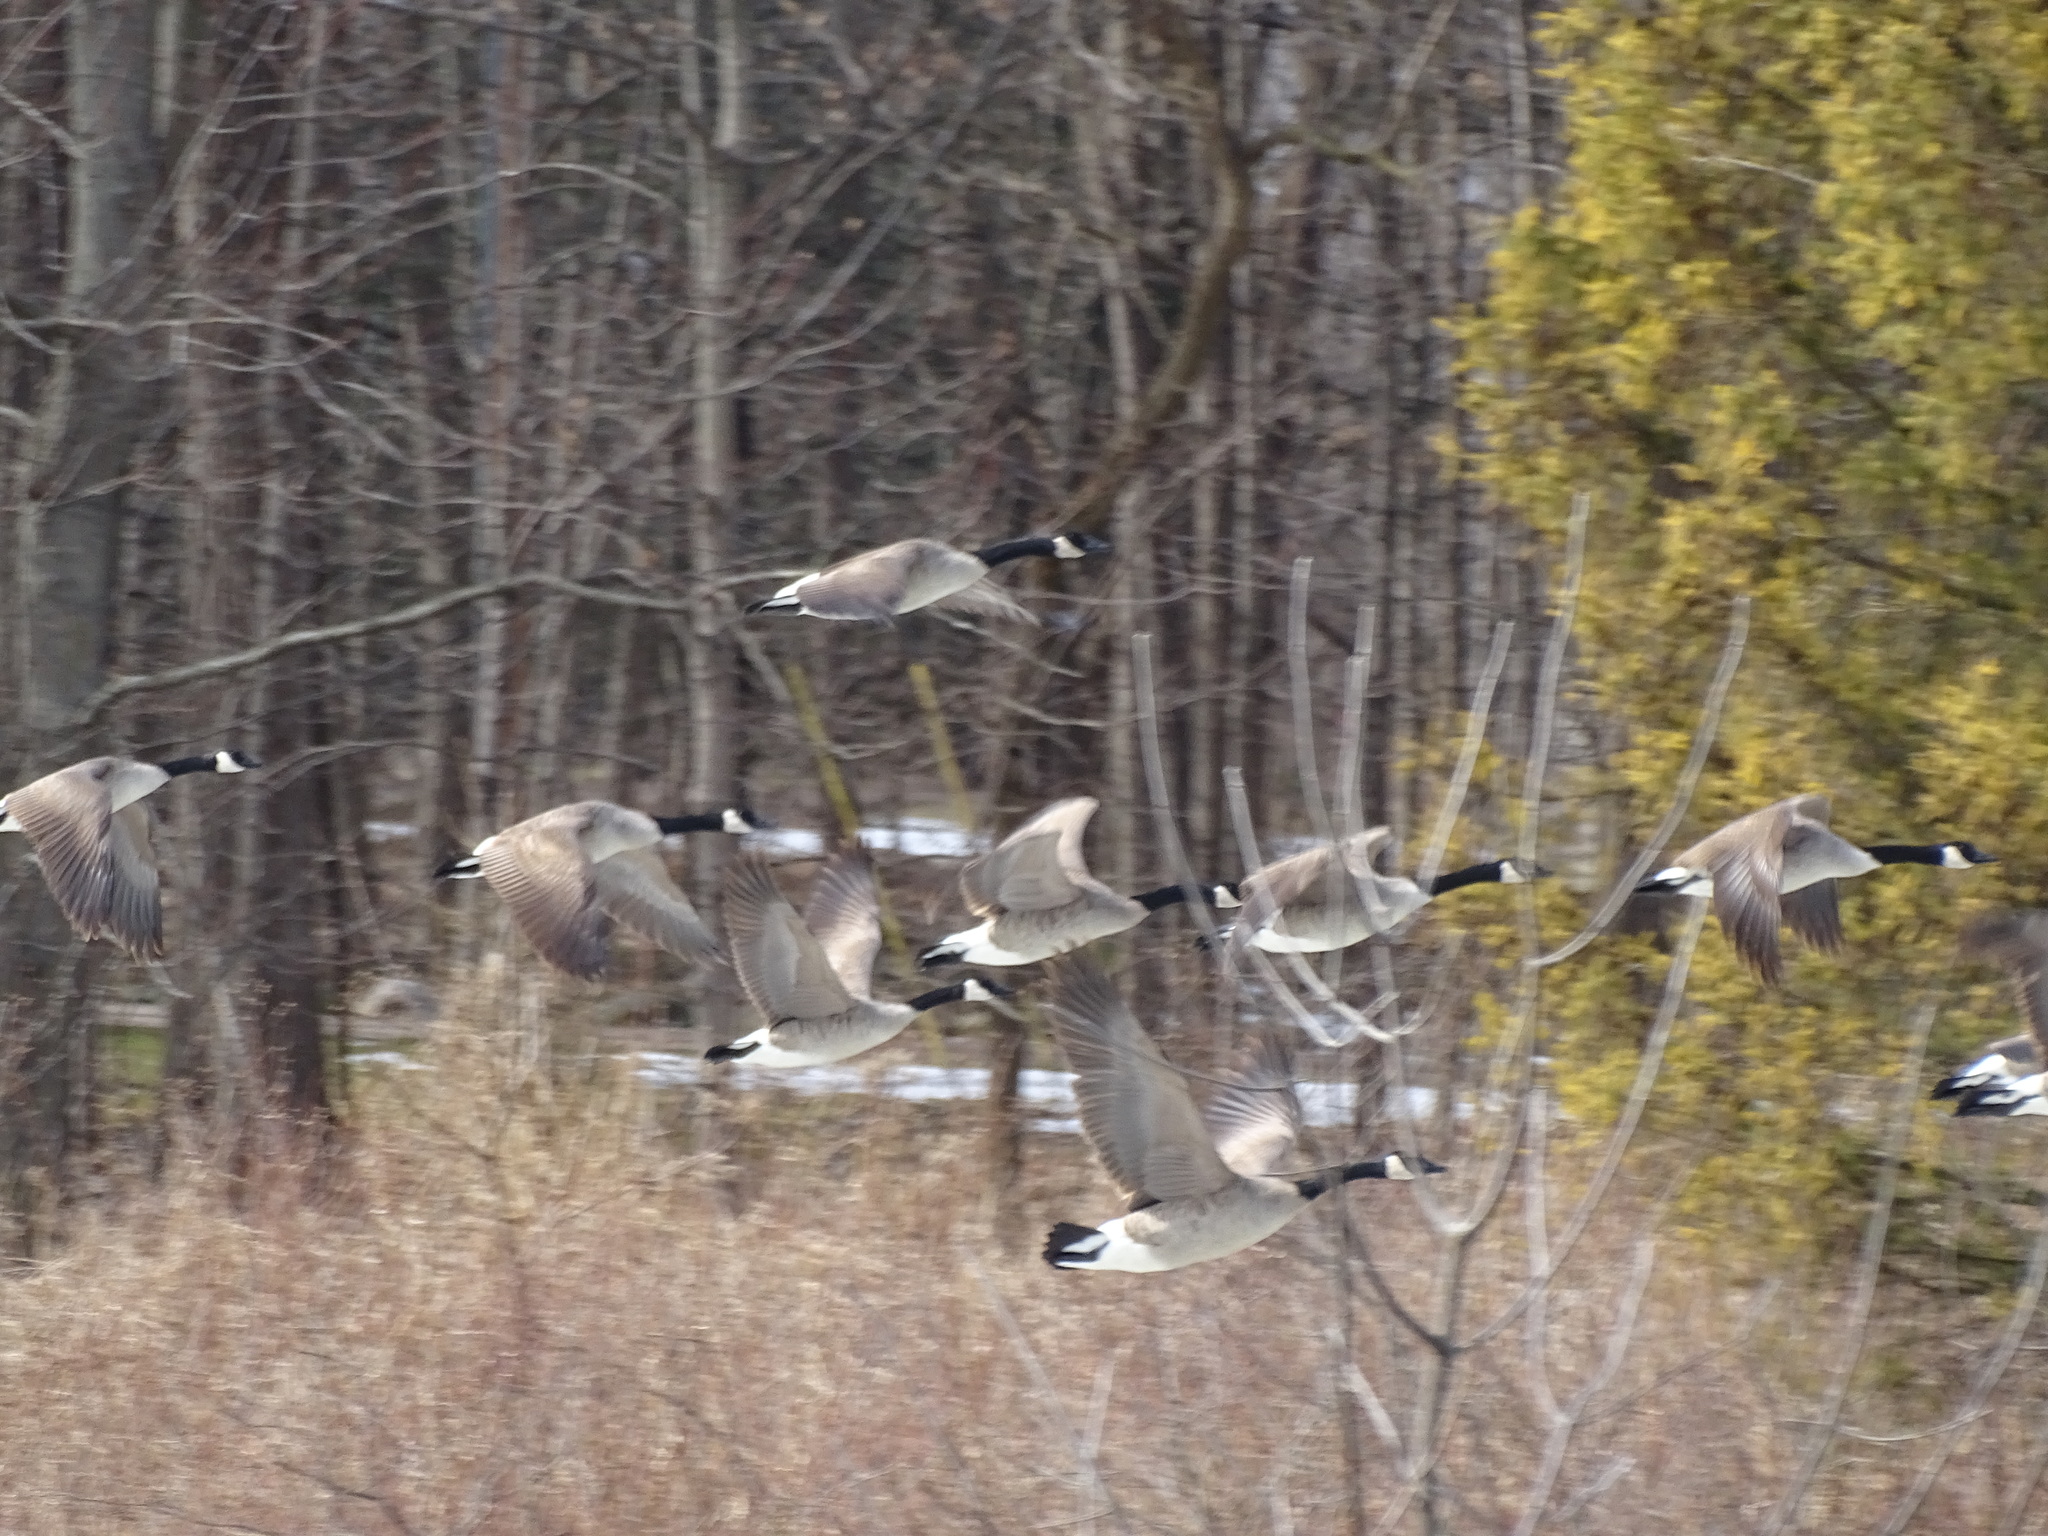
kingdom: Animalia
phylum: Chordata
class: Aves
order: Anseriformes
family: Anatidae
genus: Branta
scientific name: Branta canadensis
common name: Canada goose
